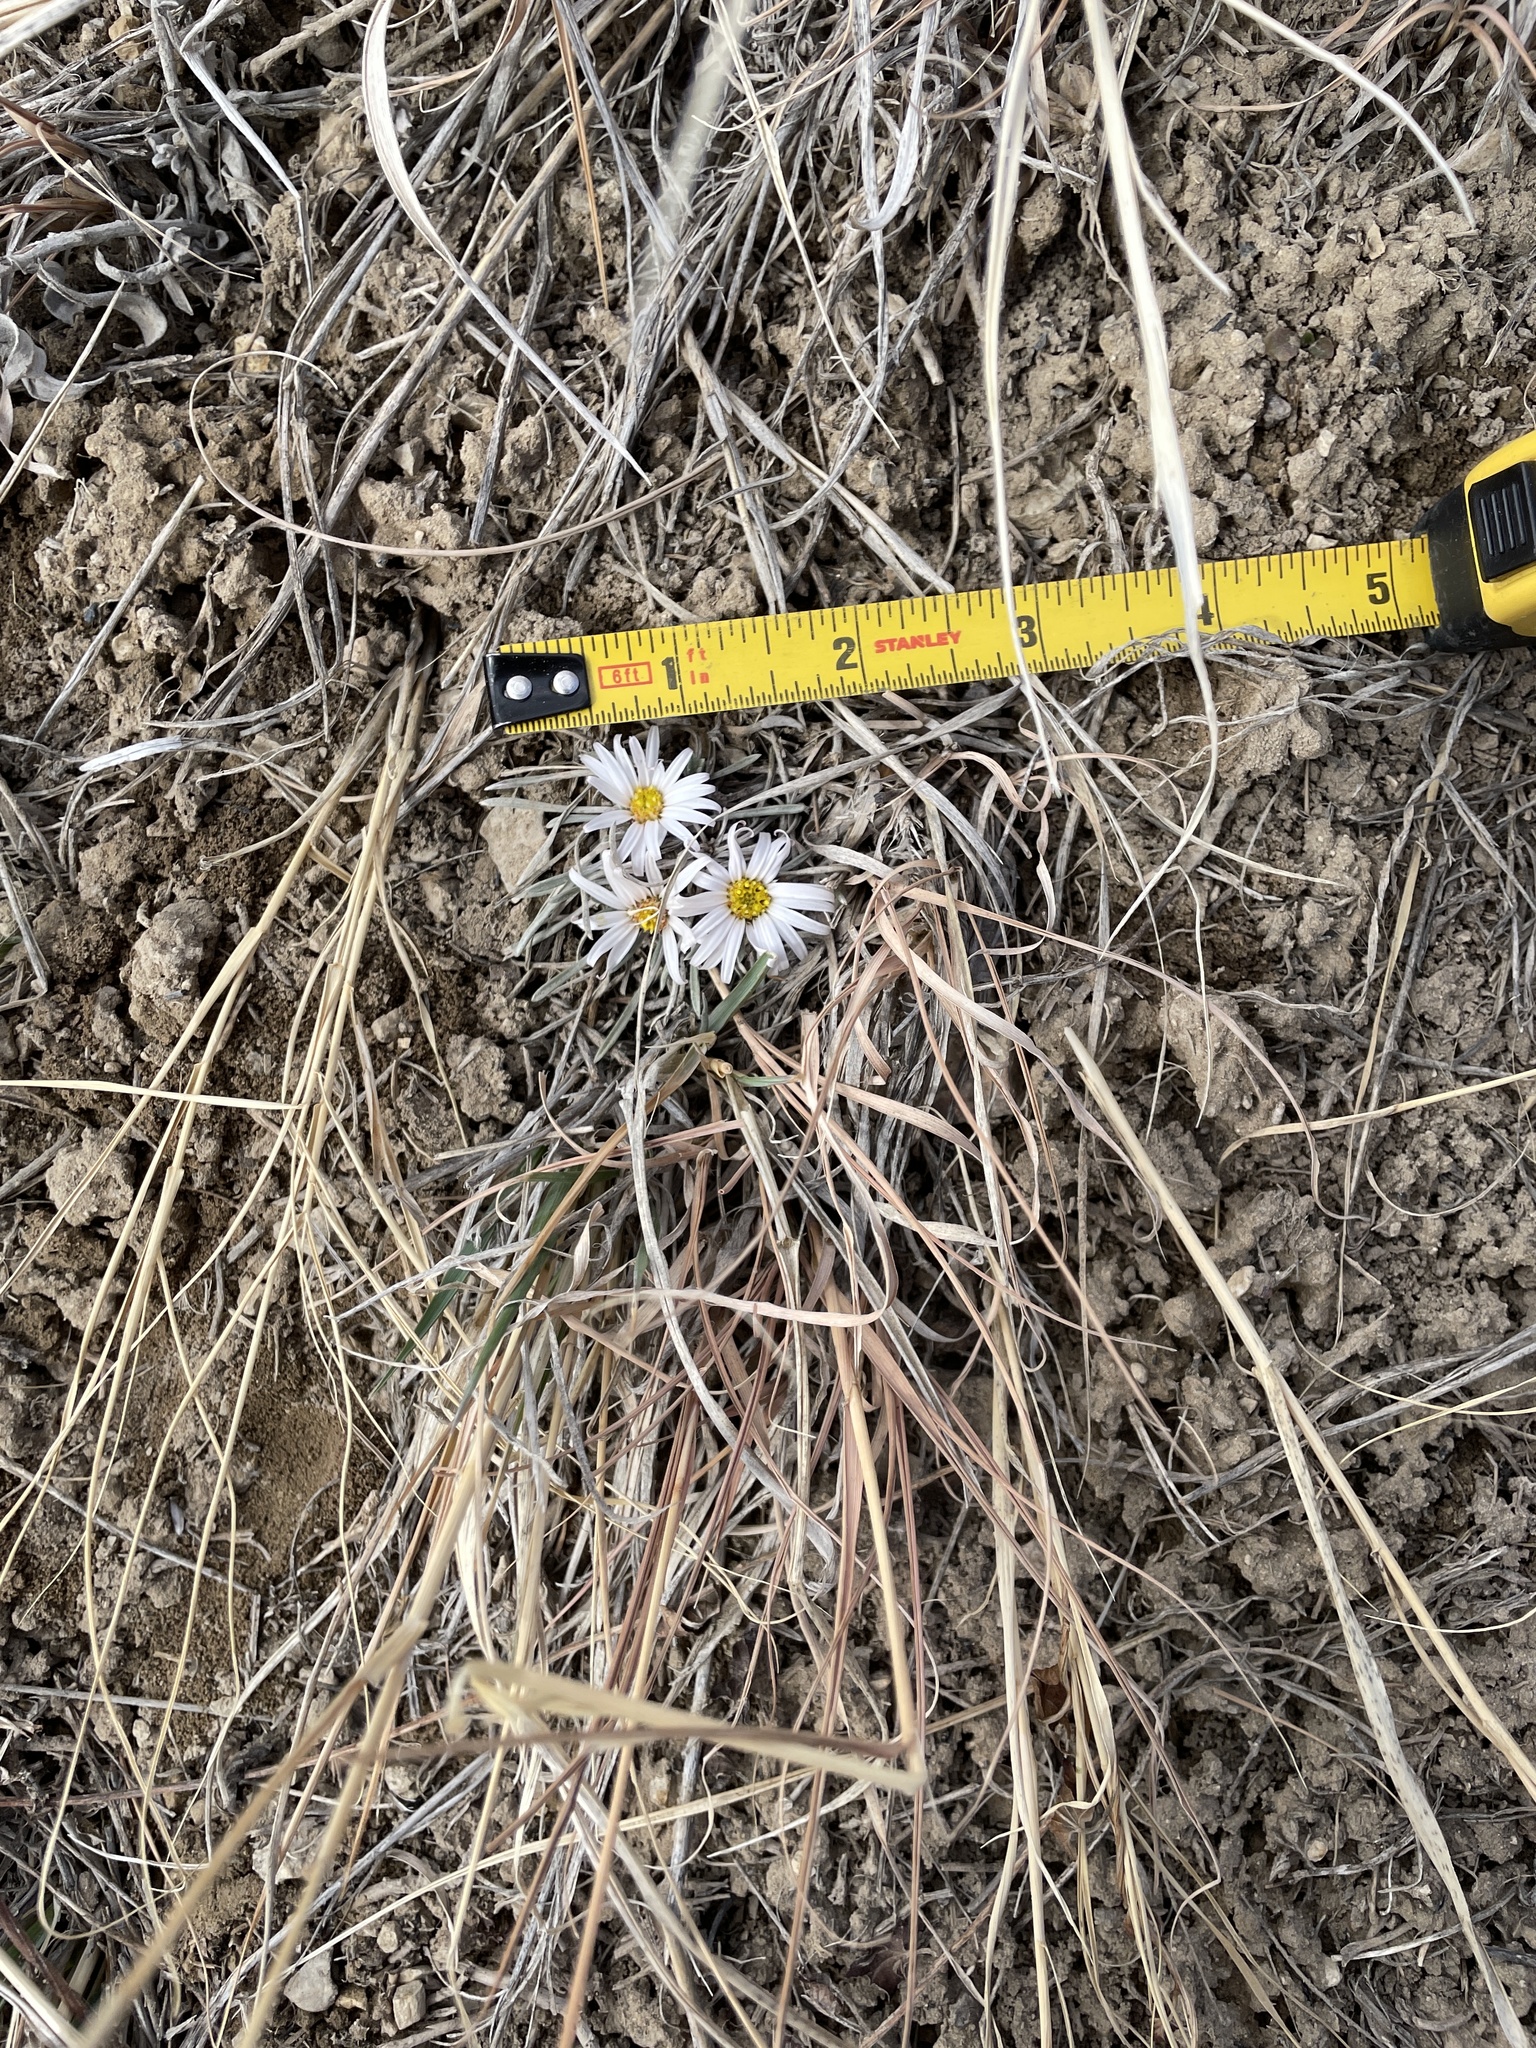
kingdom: Plantae
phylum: Tracheophyta
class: Magnoliopsida
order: Asterales
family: Asteraceae
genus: Townsendia
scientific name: Townsendia hookeri
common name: Hooker's townsend daisy
